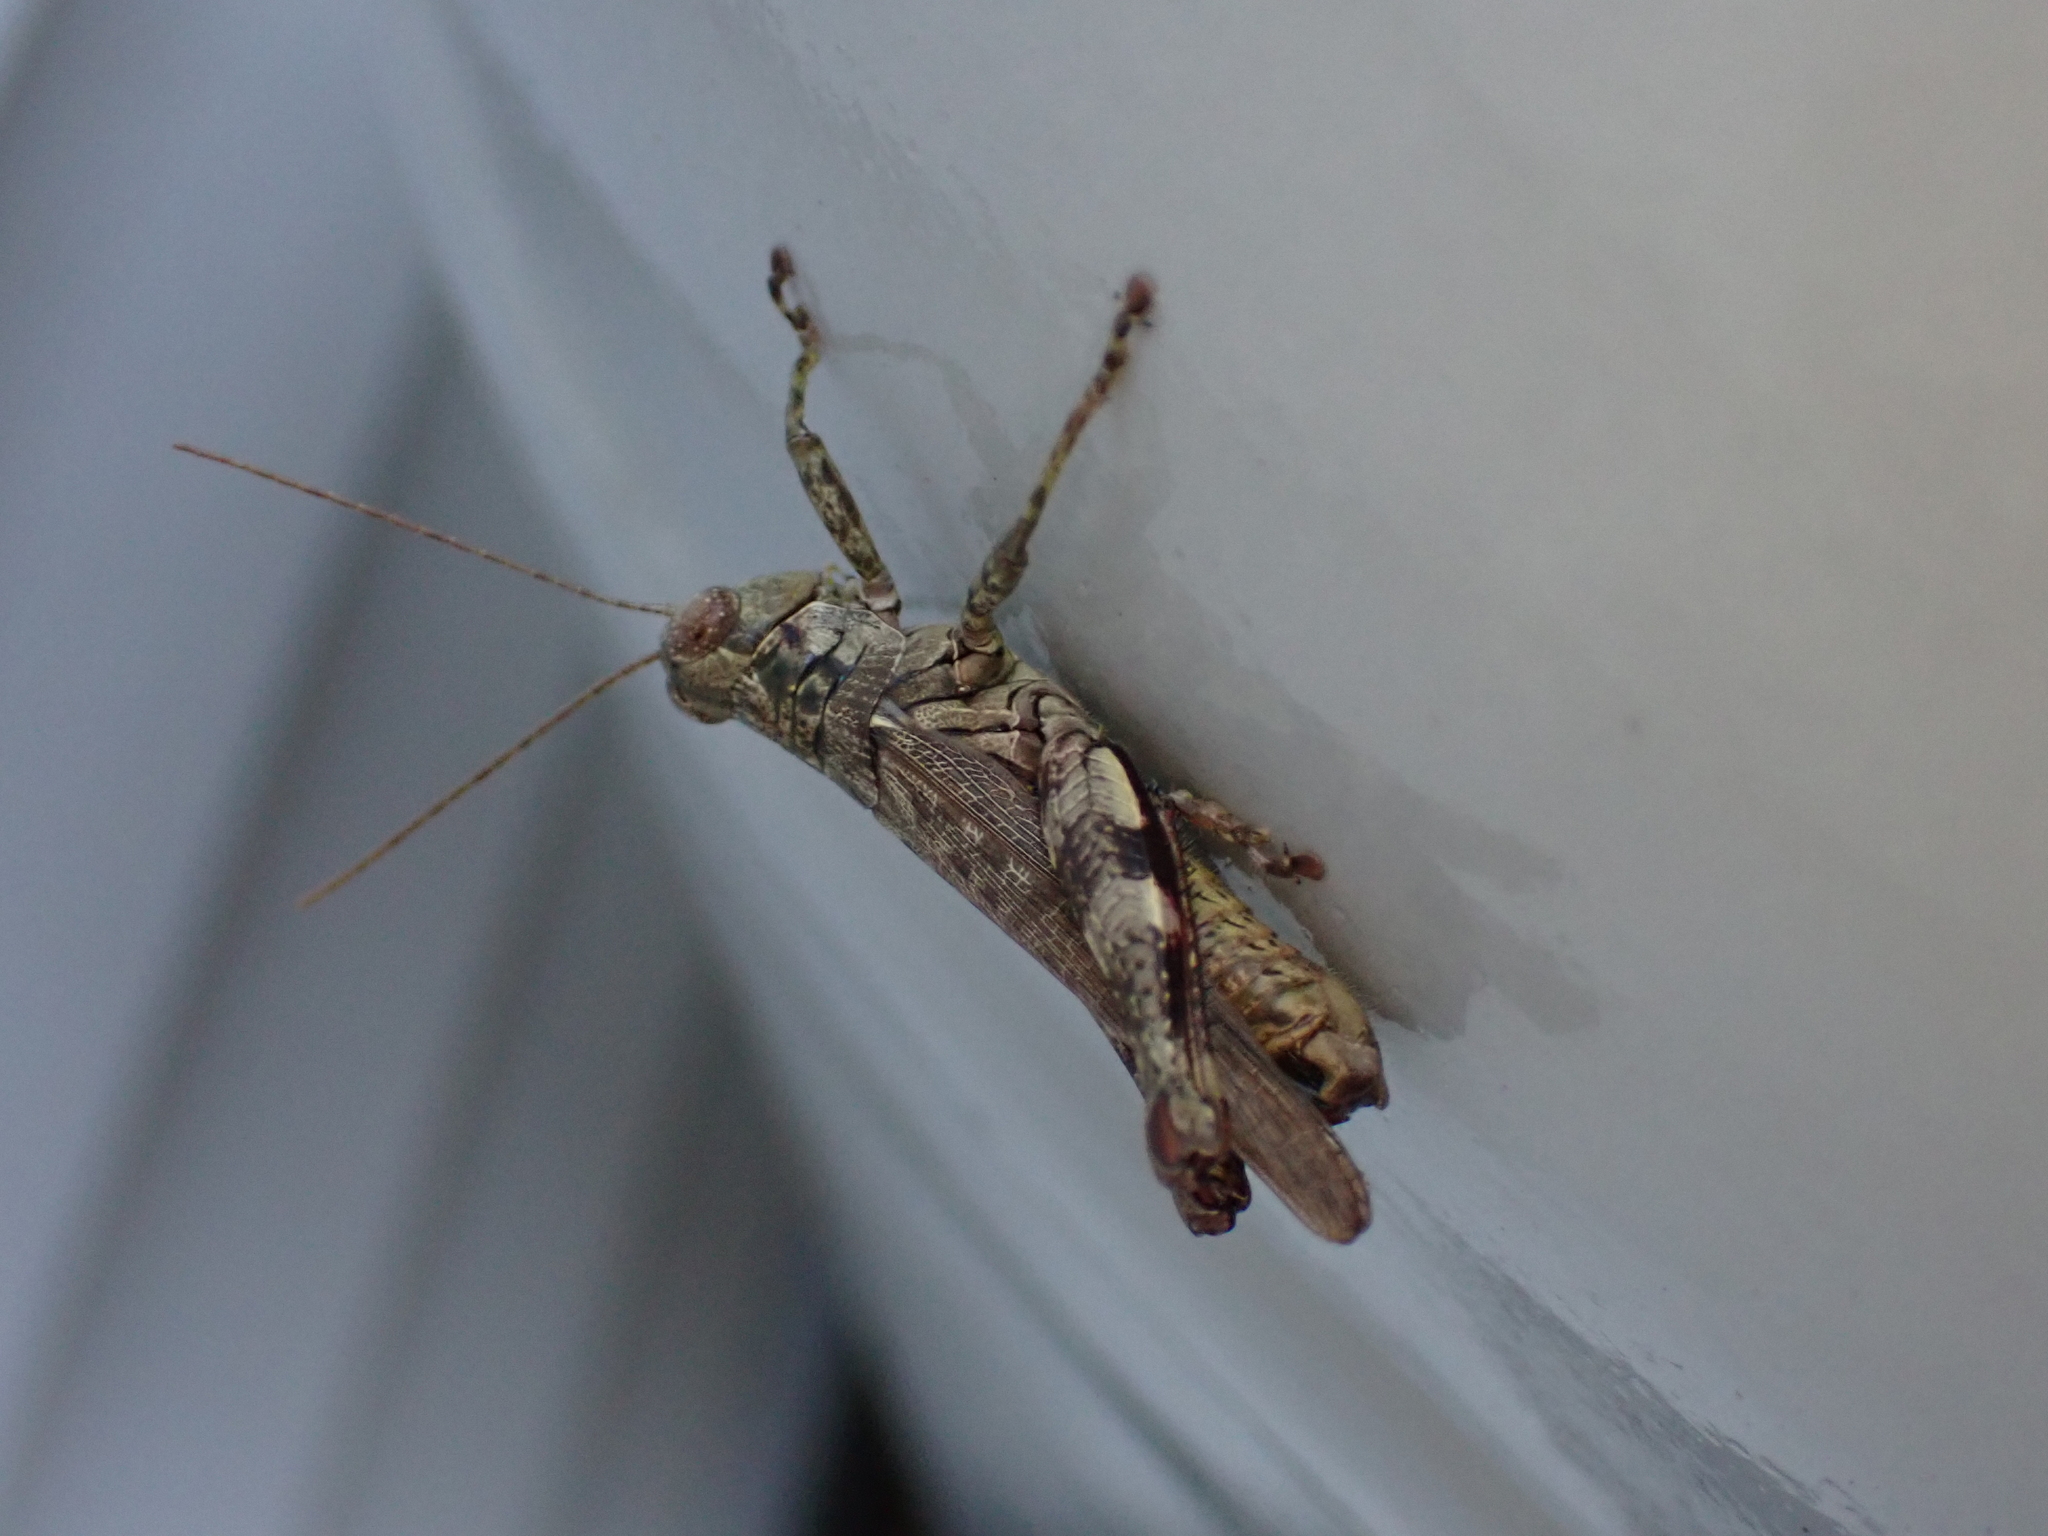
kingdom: Animalia
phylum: Arthropoda
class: Insecta
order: Orthoptera
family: Acrididae
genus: Melanoplus
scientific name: Melanoplus punctulatus
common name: Pine-tree spur-throat grasshopper
